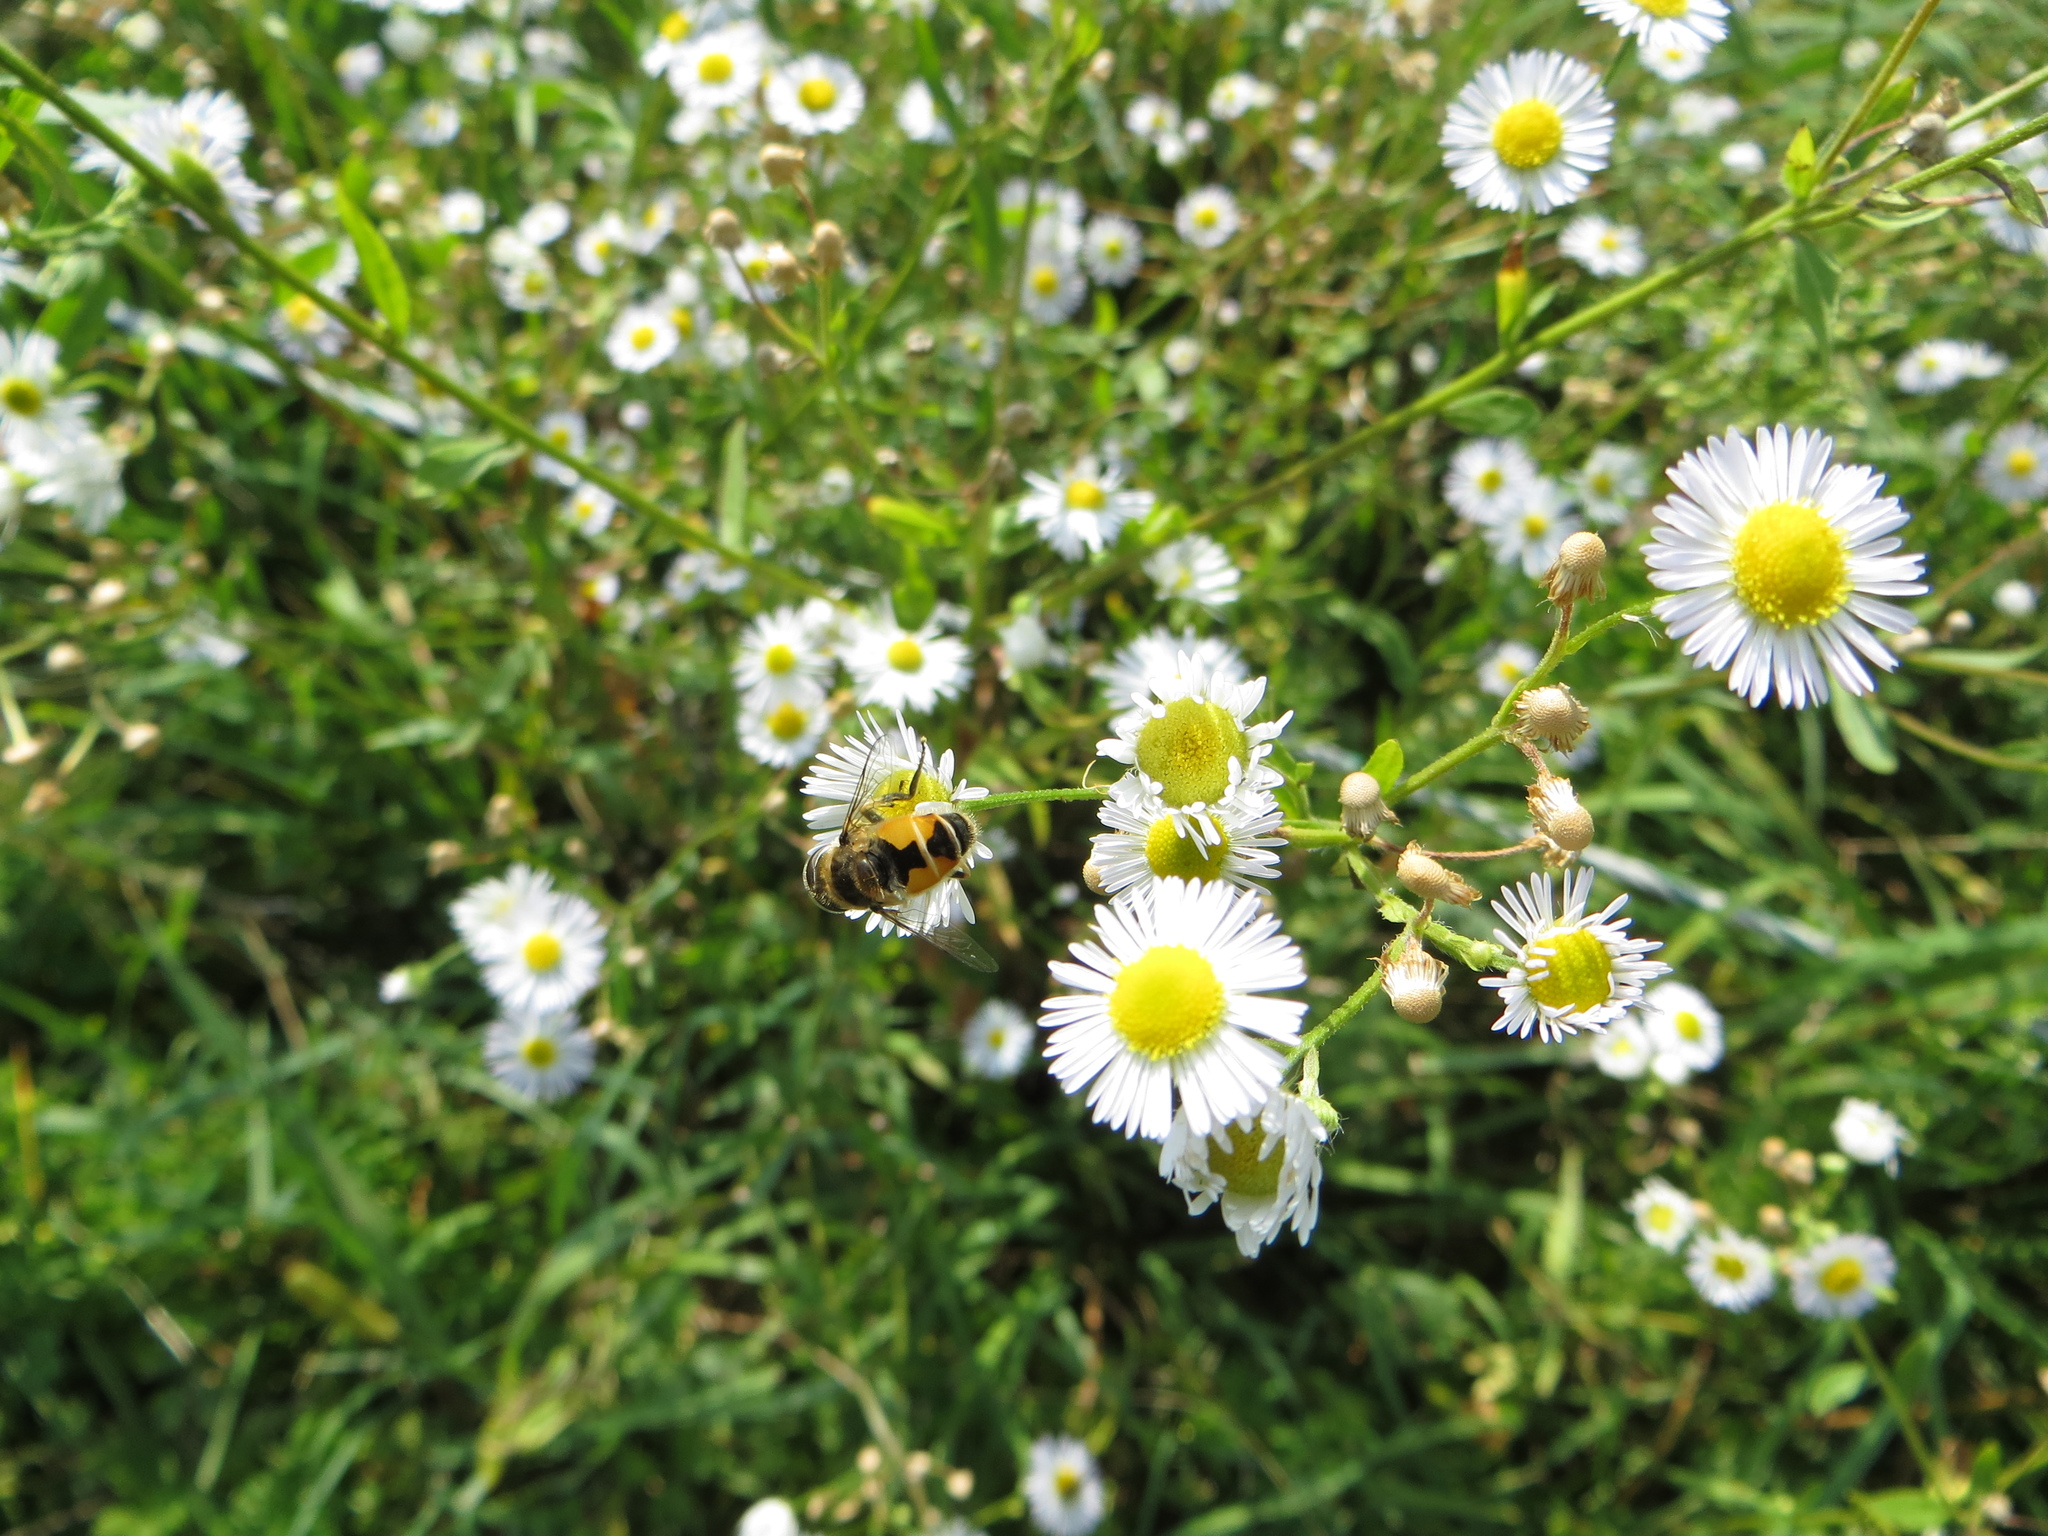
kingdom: Animalia
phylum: Arthropoda
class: Insecta
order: Diptera
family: Syrphidae
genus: Eristalis
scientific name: Eristalis arbustorum
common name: Hover fly
